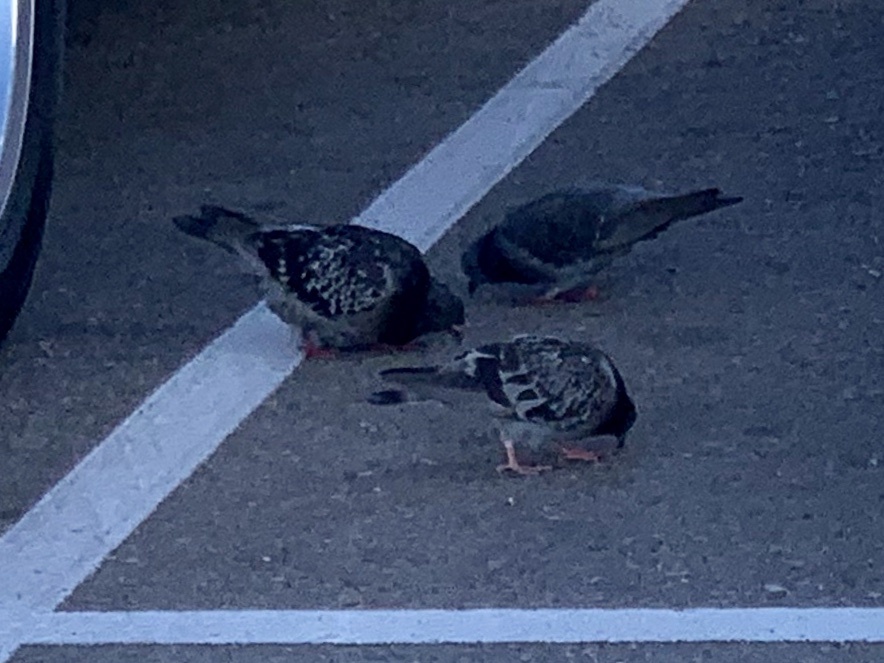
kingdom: Animalia
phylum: Chordata
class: Aves
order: Columbiformes
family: Columbidae
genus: Columba
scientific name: Columba livia
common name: Rock pigeon
